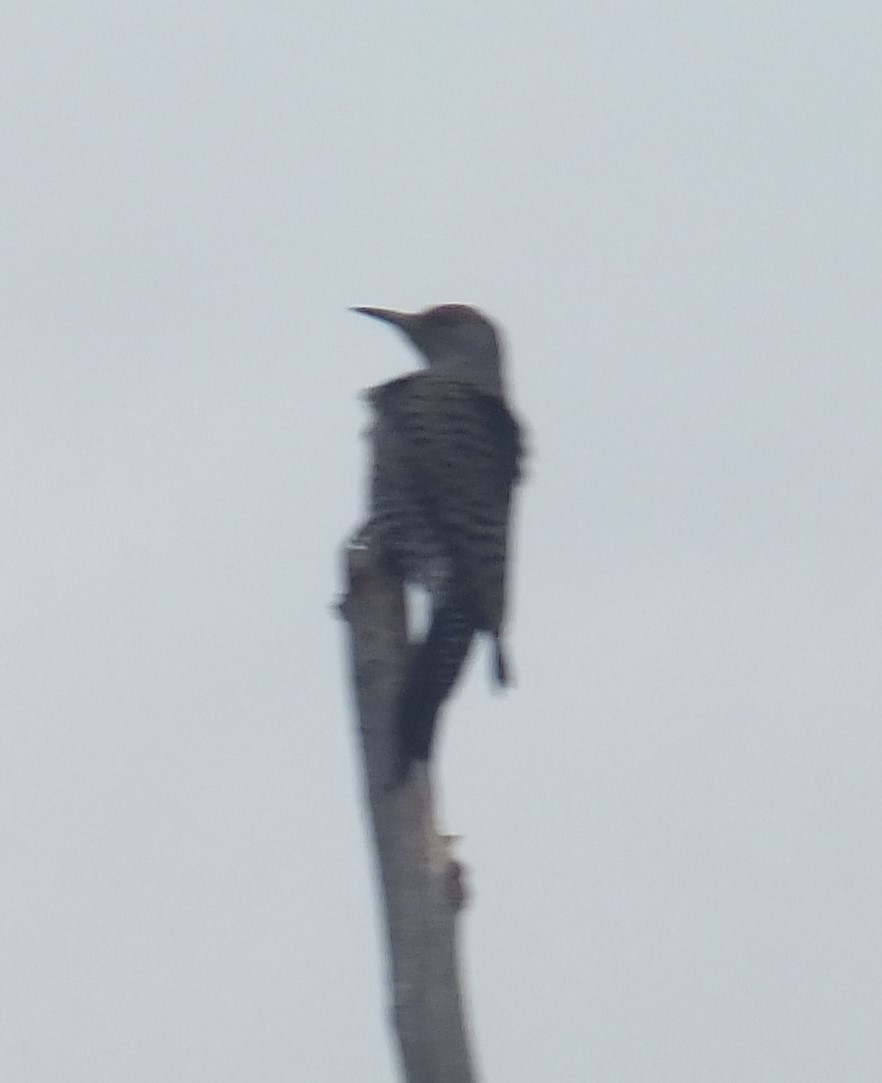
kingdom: Animalia
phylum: Chordata
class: Aves
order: Piciformes
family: Picidae
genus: Colaptes
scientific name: Colaptes auratus
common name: Northern flicker
